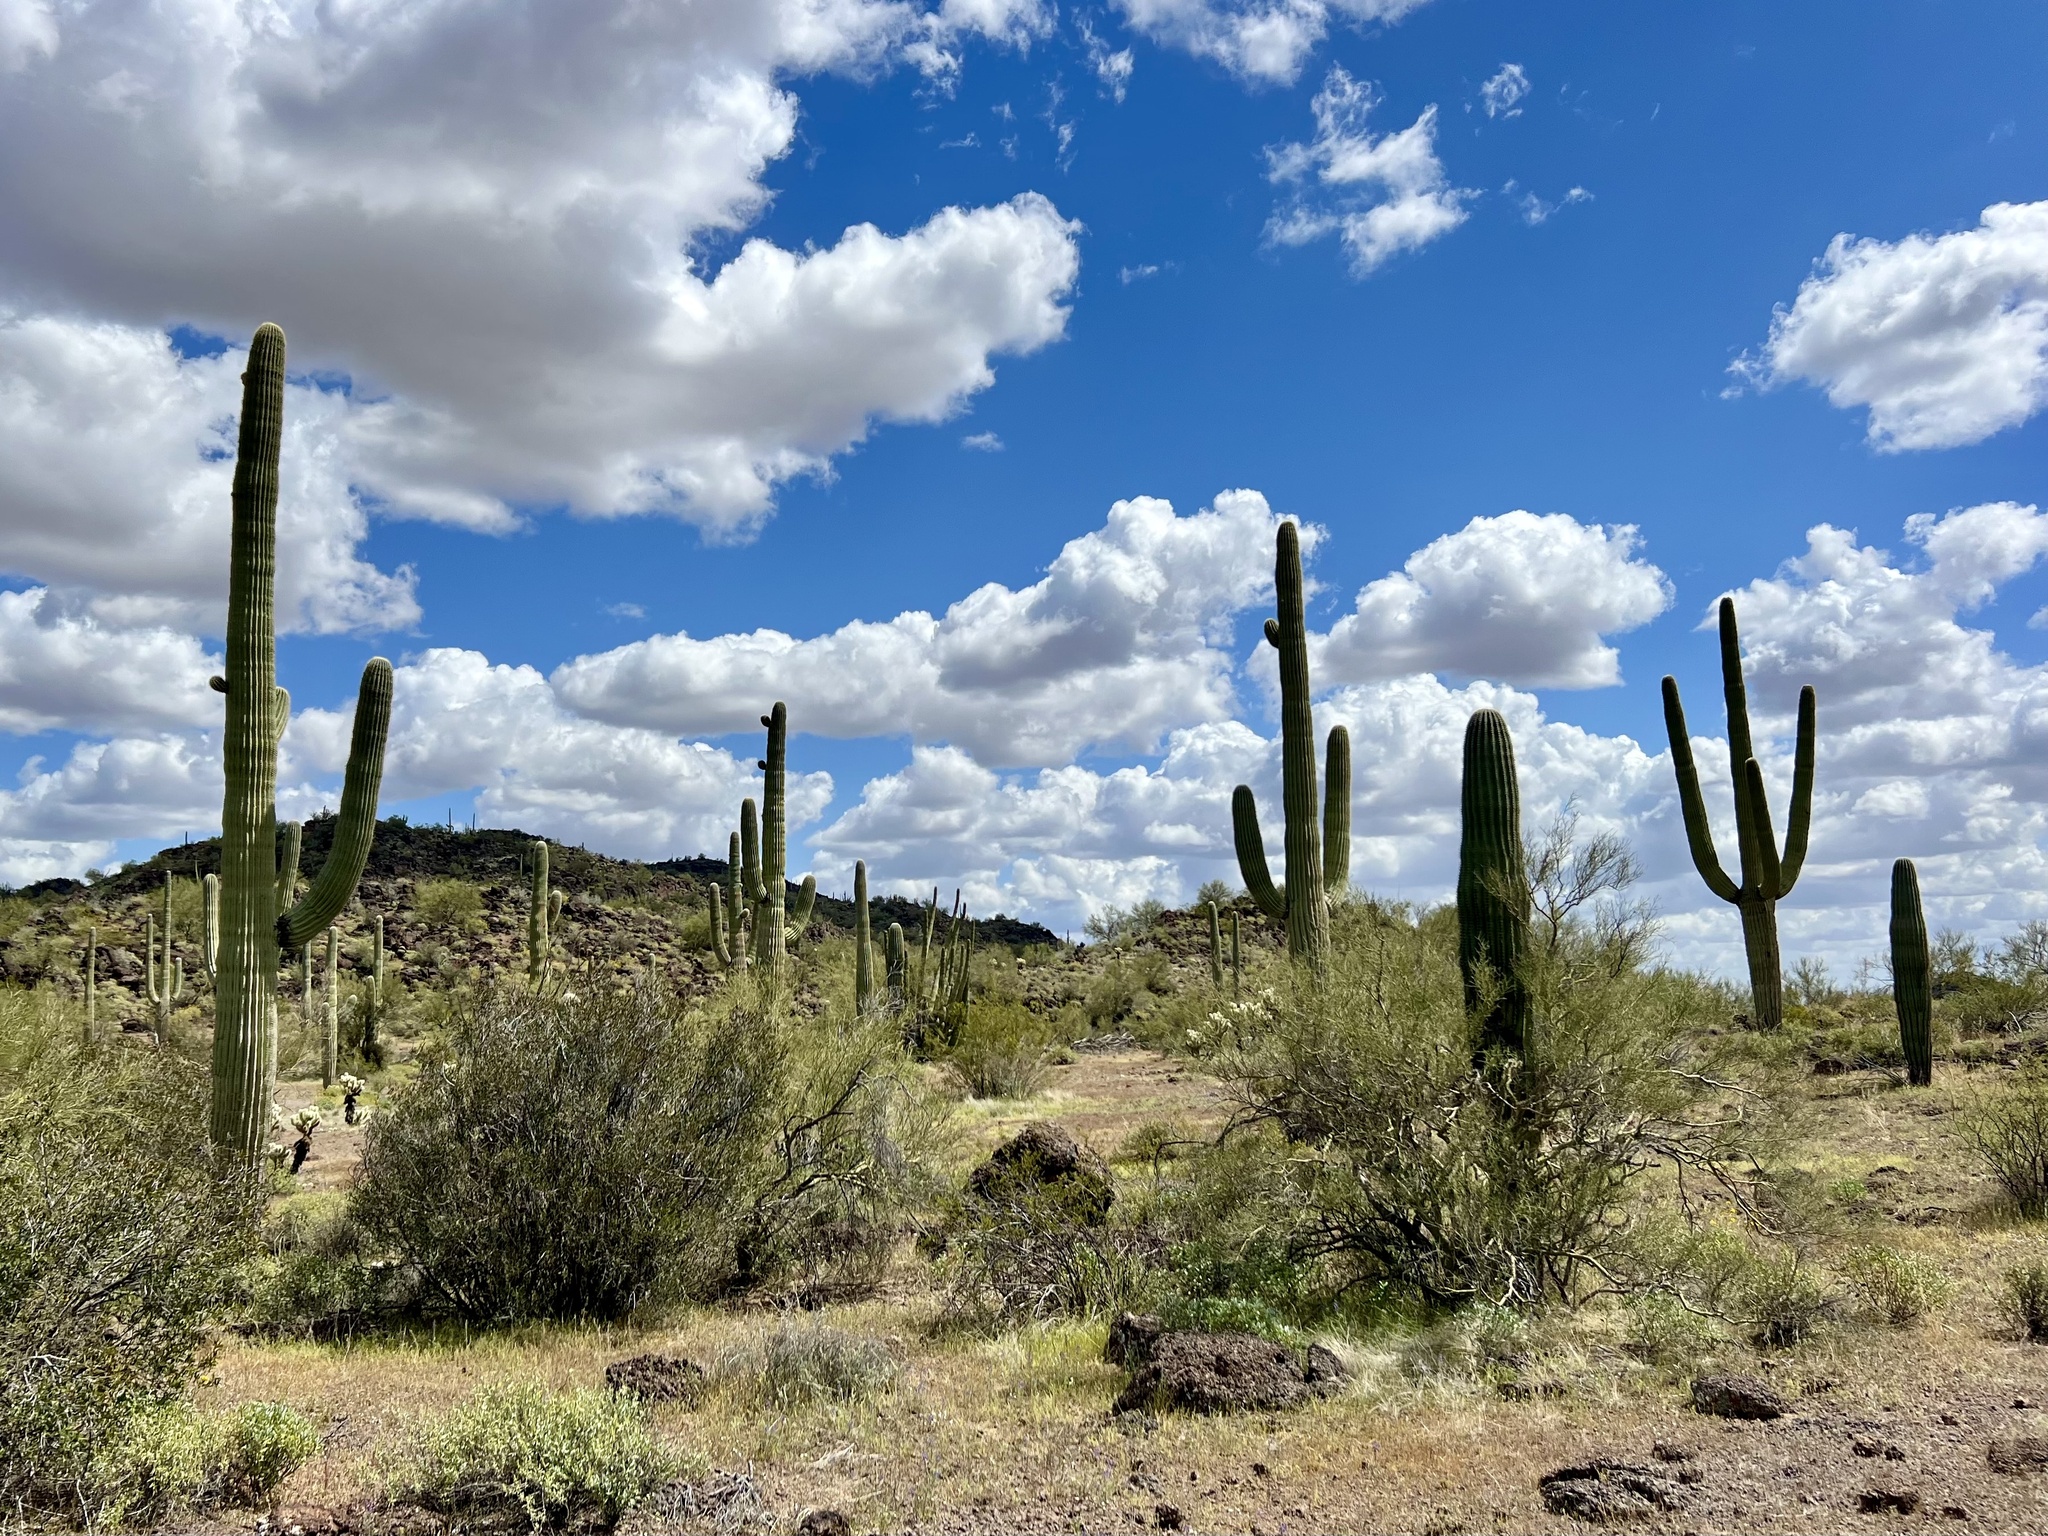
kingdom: Plantae
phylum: Tracheophyta
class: Magnoliopsida
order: Caryophyllales
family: Cactaceae
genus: Carnegiea
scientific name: Carnegiea gigantea
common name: Saguaro
